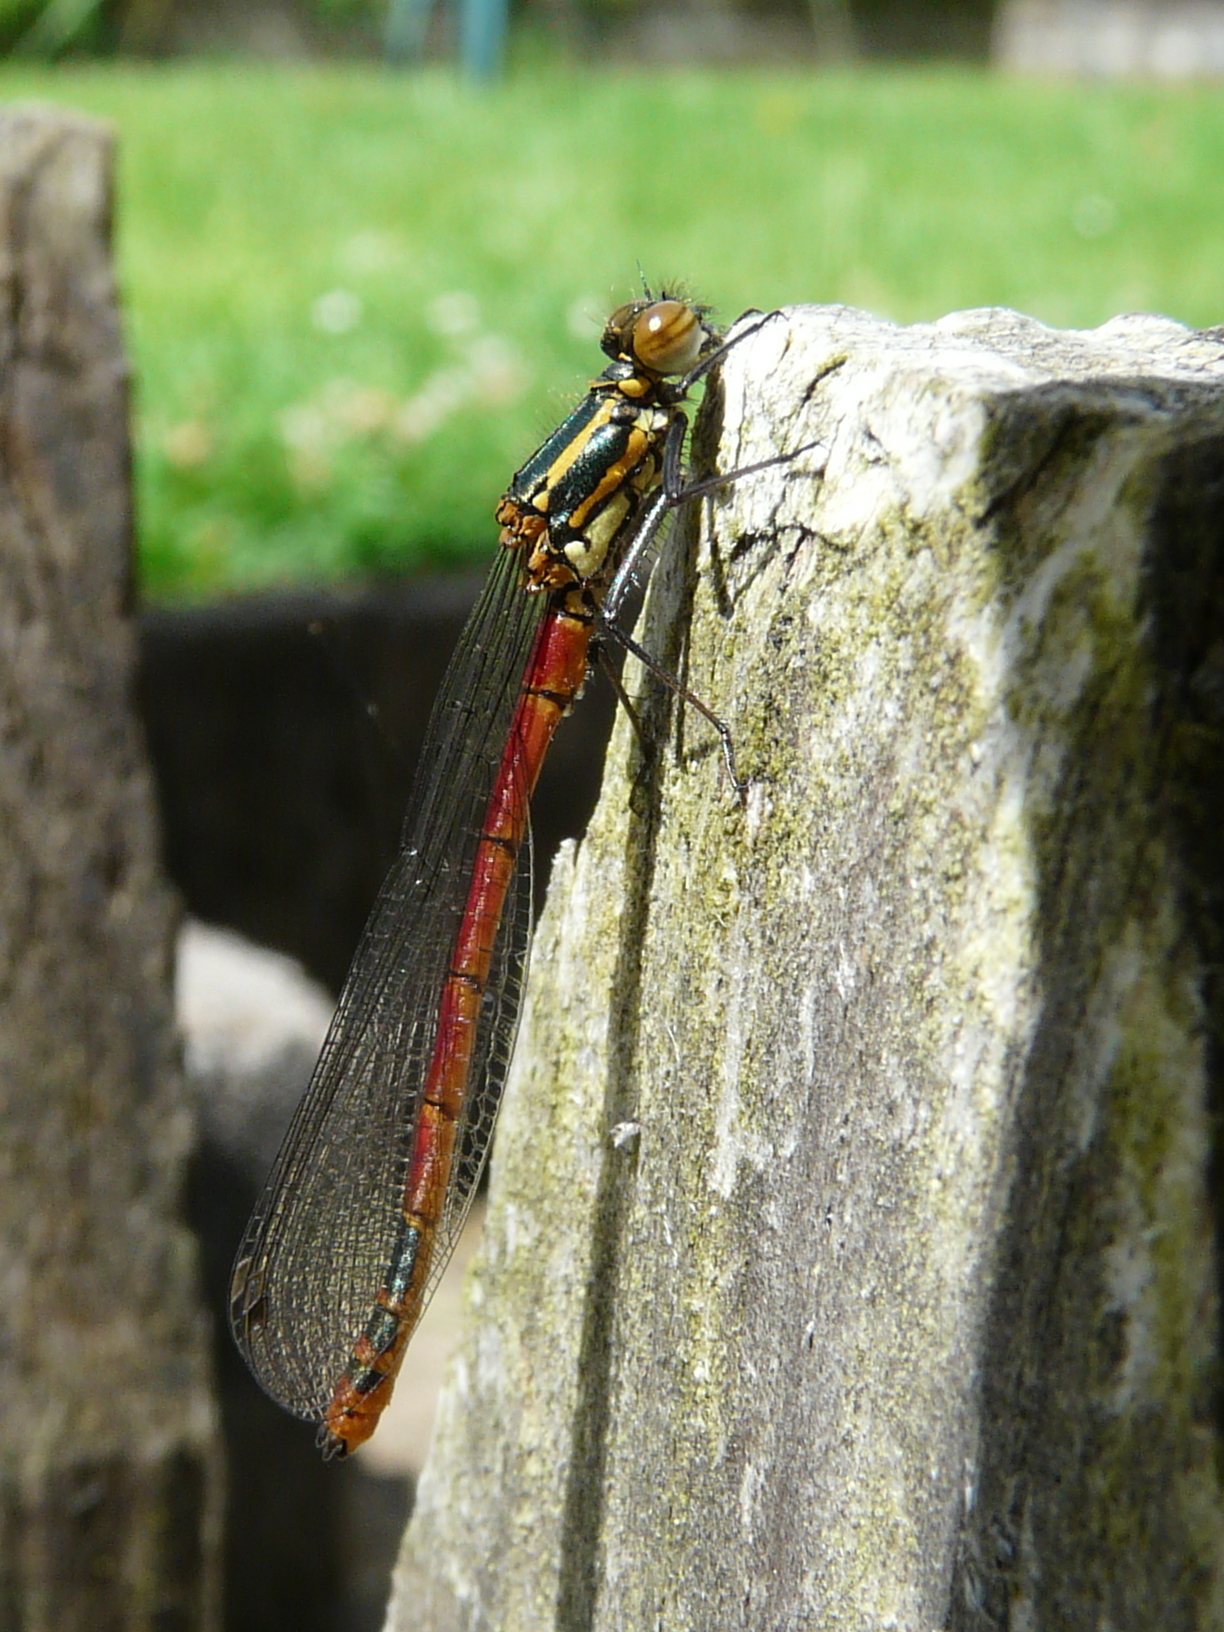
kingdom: Animalia
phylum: Arthropoda
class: Insecta
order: Odonata
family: Coenagrionidae
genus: Pyrrhosoma
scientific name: Pyrrhosoma nymphula
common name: Large red damsel
